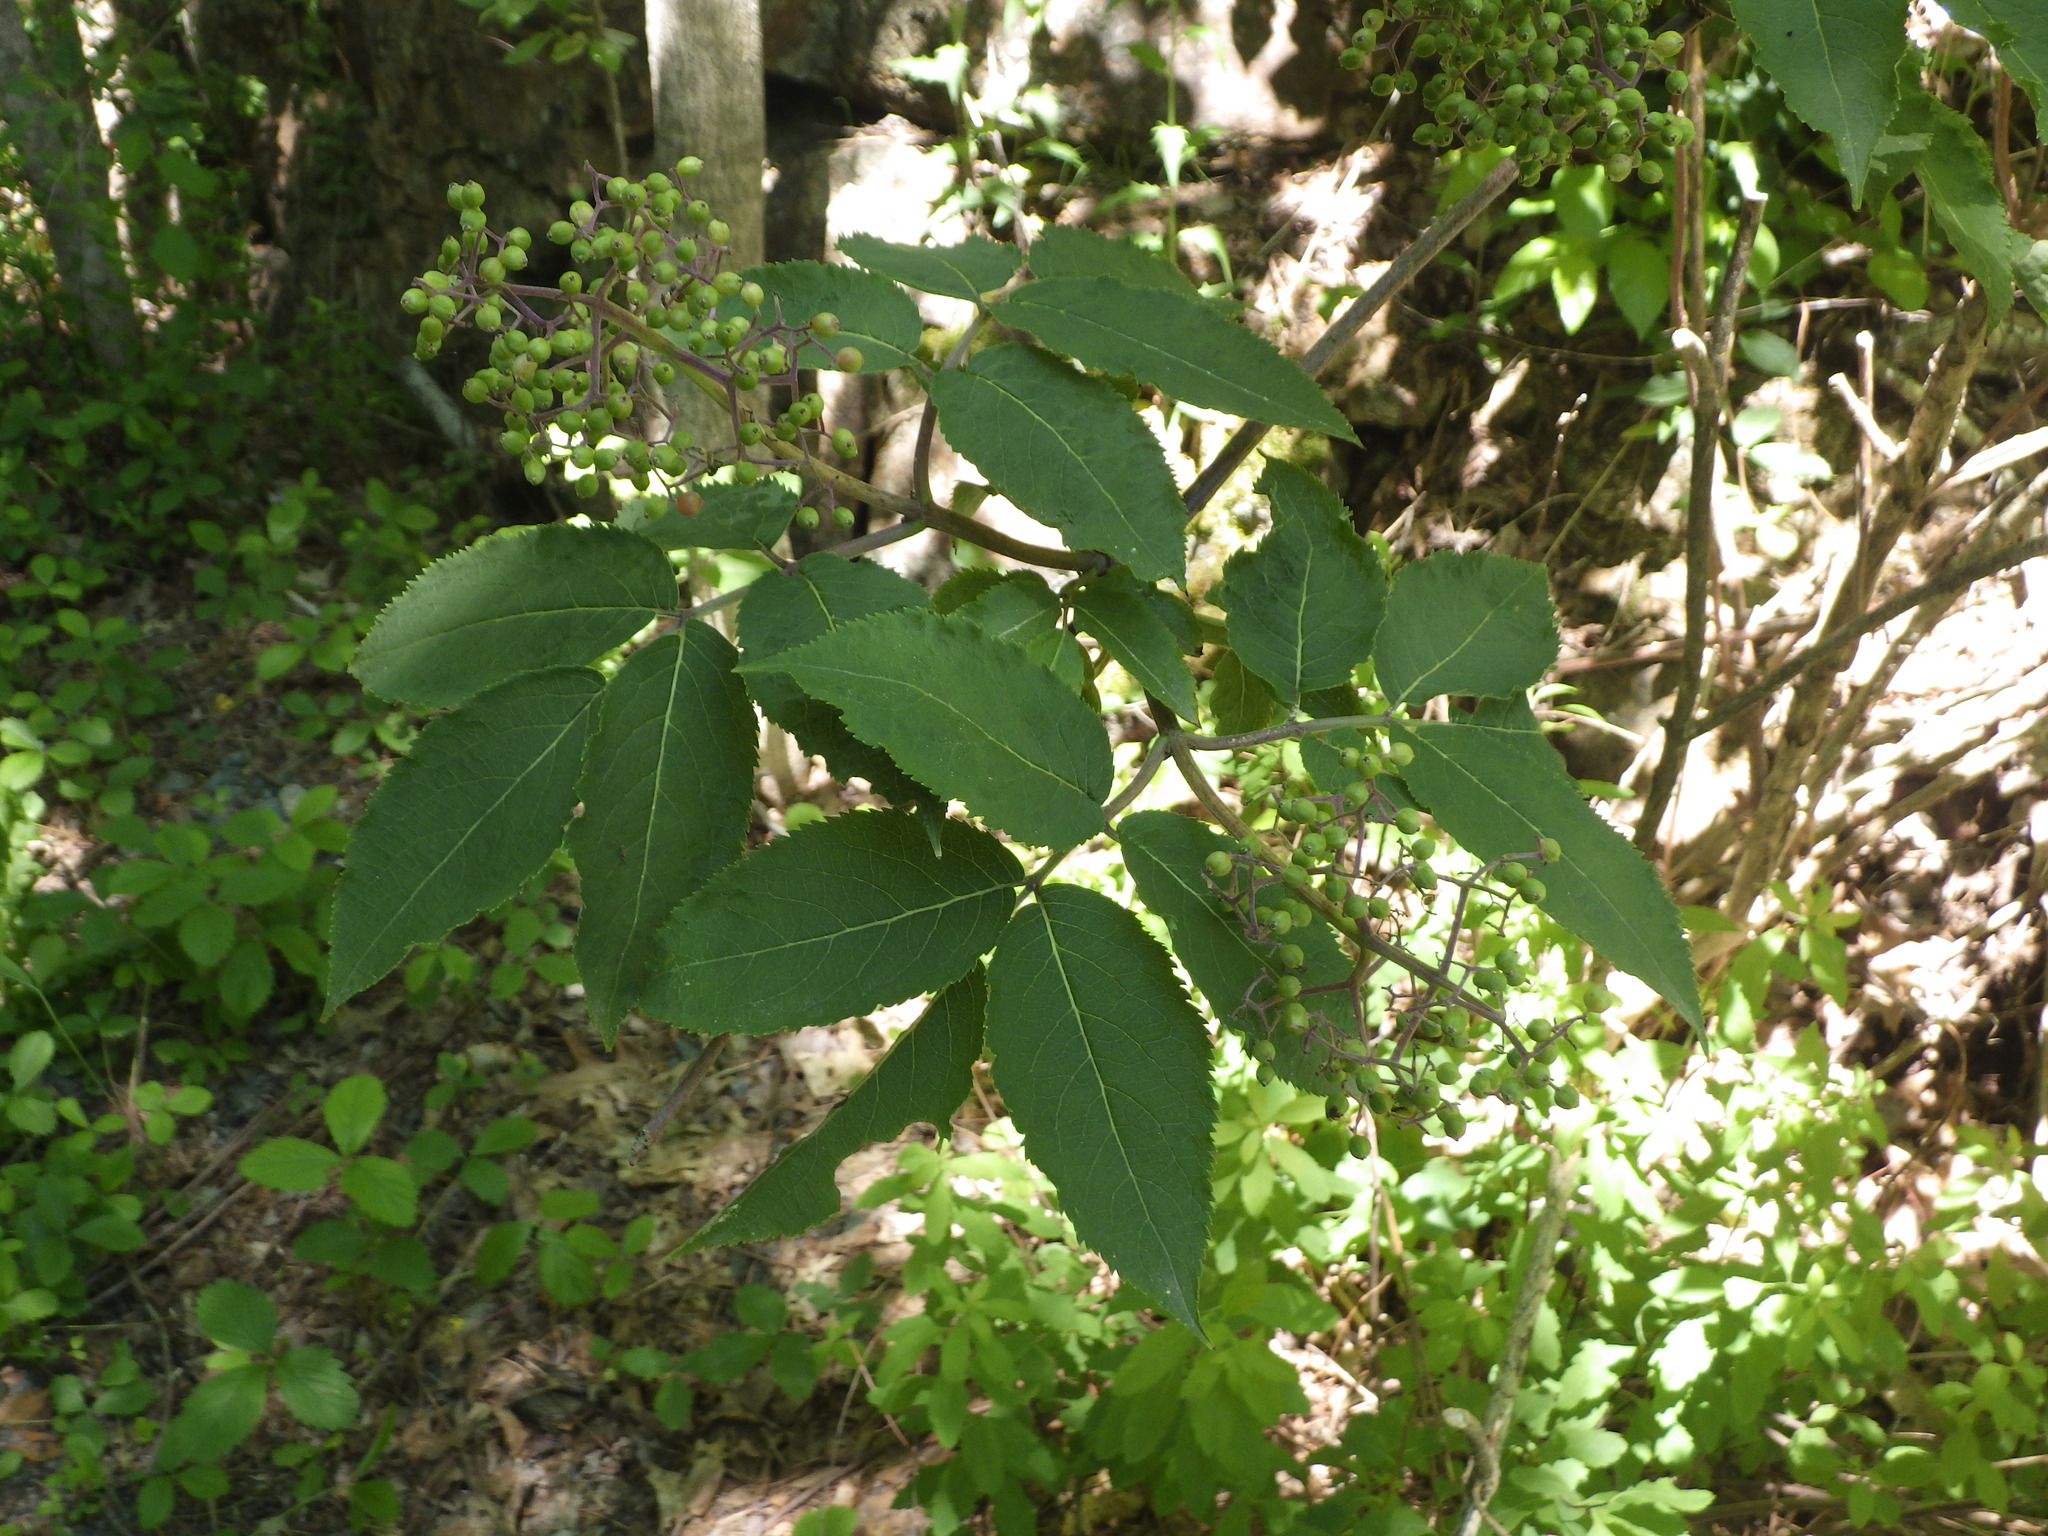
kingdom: Plantae
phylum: Tracheophyta
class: Magnoliopsida
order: Dipsacales
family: Viburnaceae
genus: Sambucus
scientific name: Sambucus racemosa
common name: Red-berried elder
